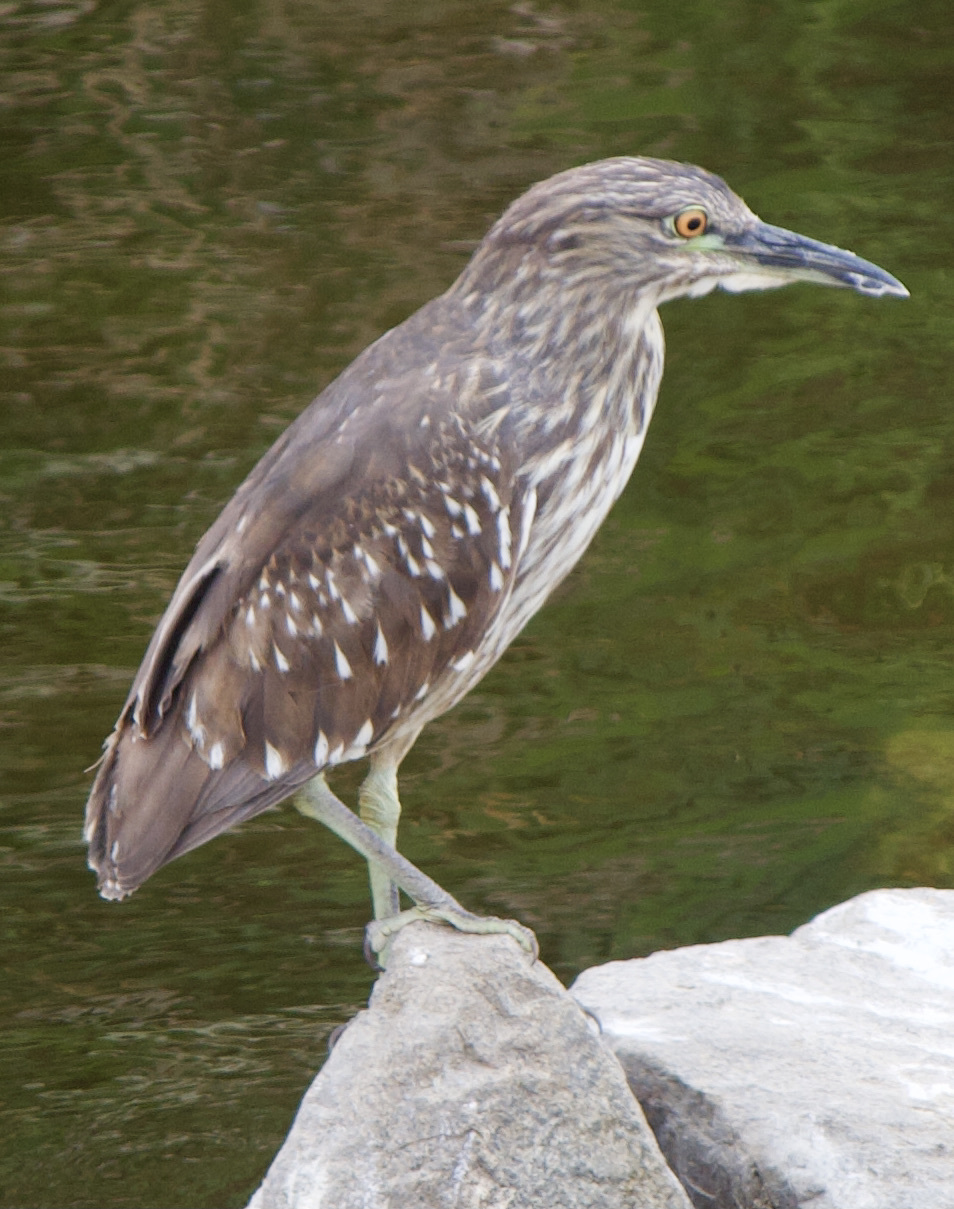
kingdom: Animalia
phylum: Chordata
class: Aves
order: Pelecaniformes
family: Ardeidae
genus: Nycticorax
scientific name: Nycticorax nycticorax
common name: Black-crowned night heron
